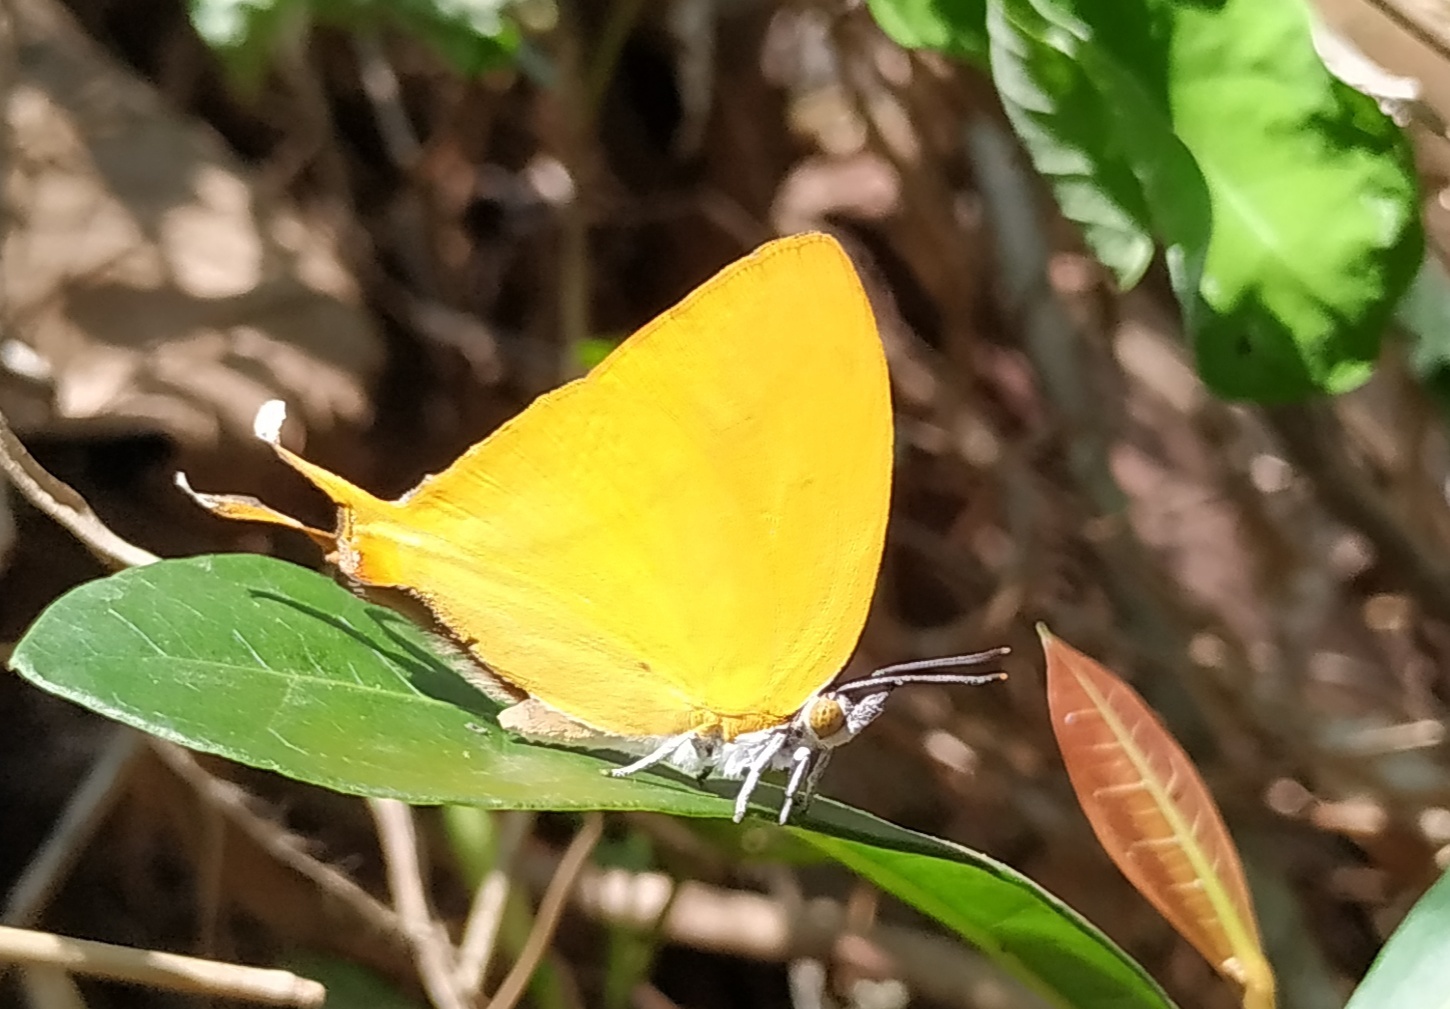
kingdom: Animalia
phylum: Arthropoda
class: Insecta
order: Lepidoptera
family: Lycaenidae
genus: Loxura
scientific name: Loxura atymnus
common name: Common yamfly
